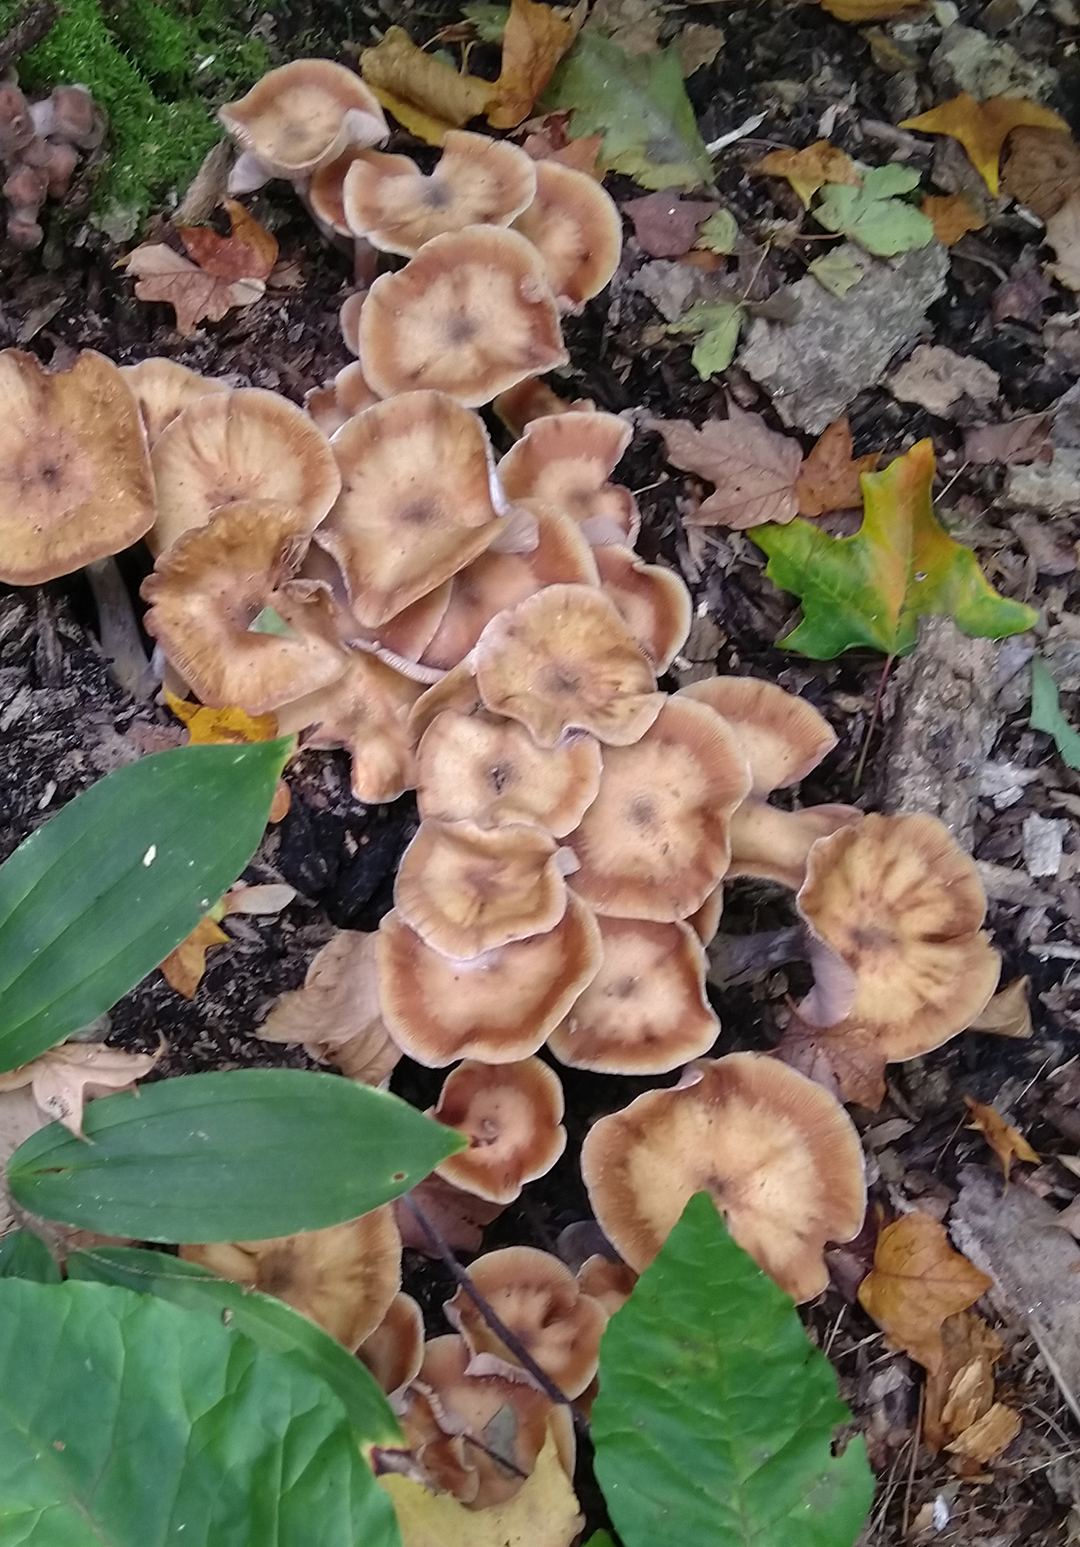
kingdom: Fungi
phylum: Basidiomycota
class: Agaricomycetes
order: Agaricales
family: Physalacriaceae
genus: Armillaria
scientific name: Armillaria mellea
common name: Honey fungus
